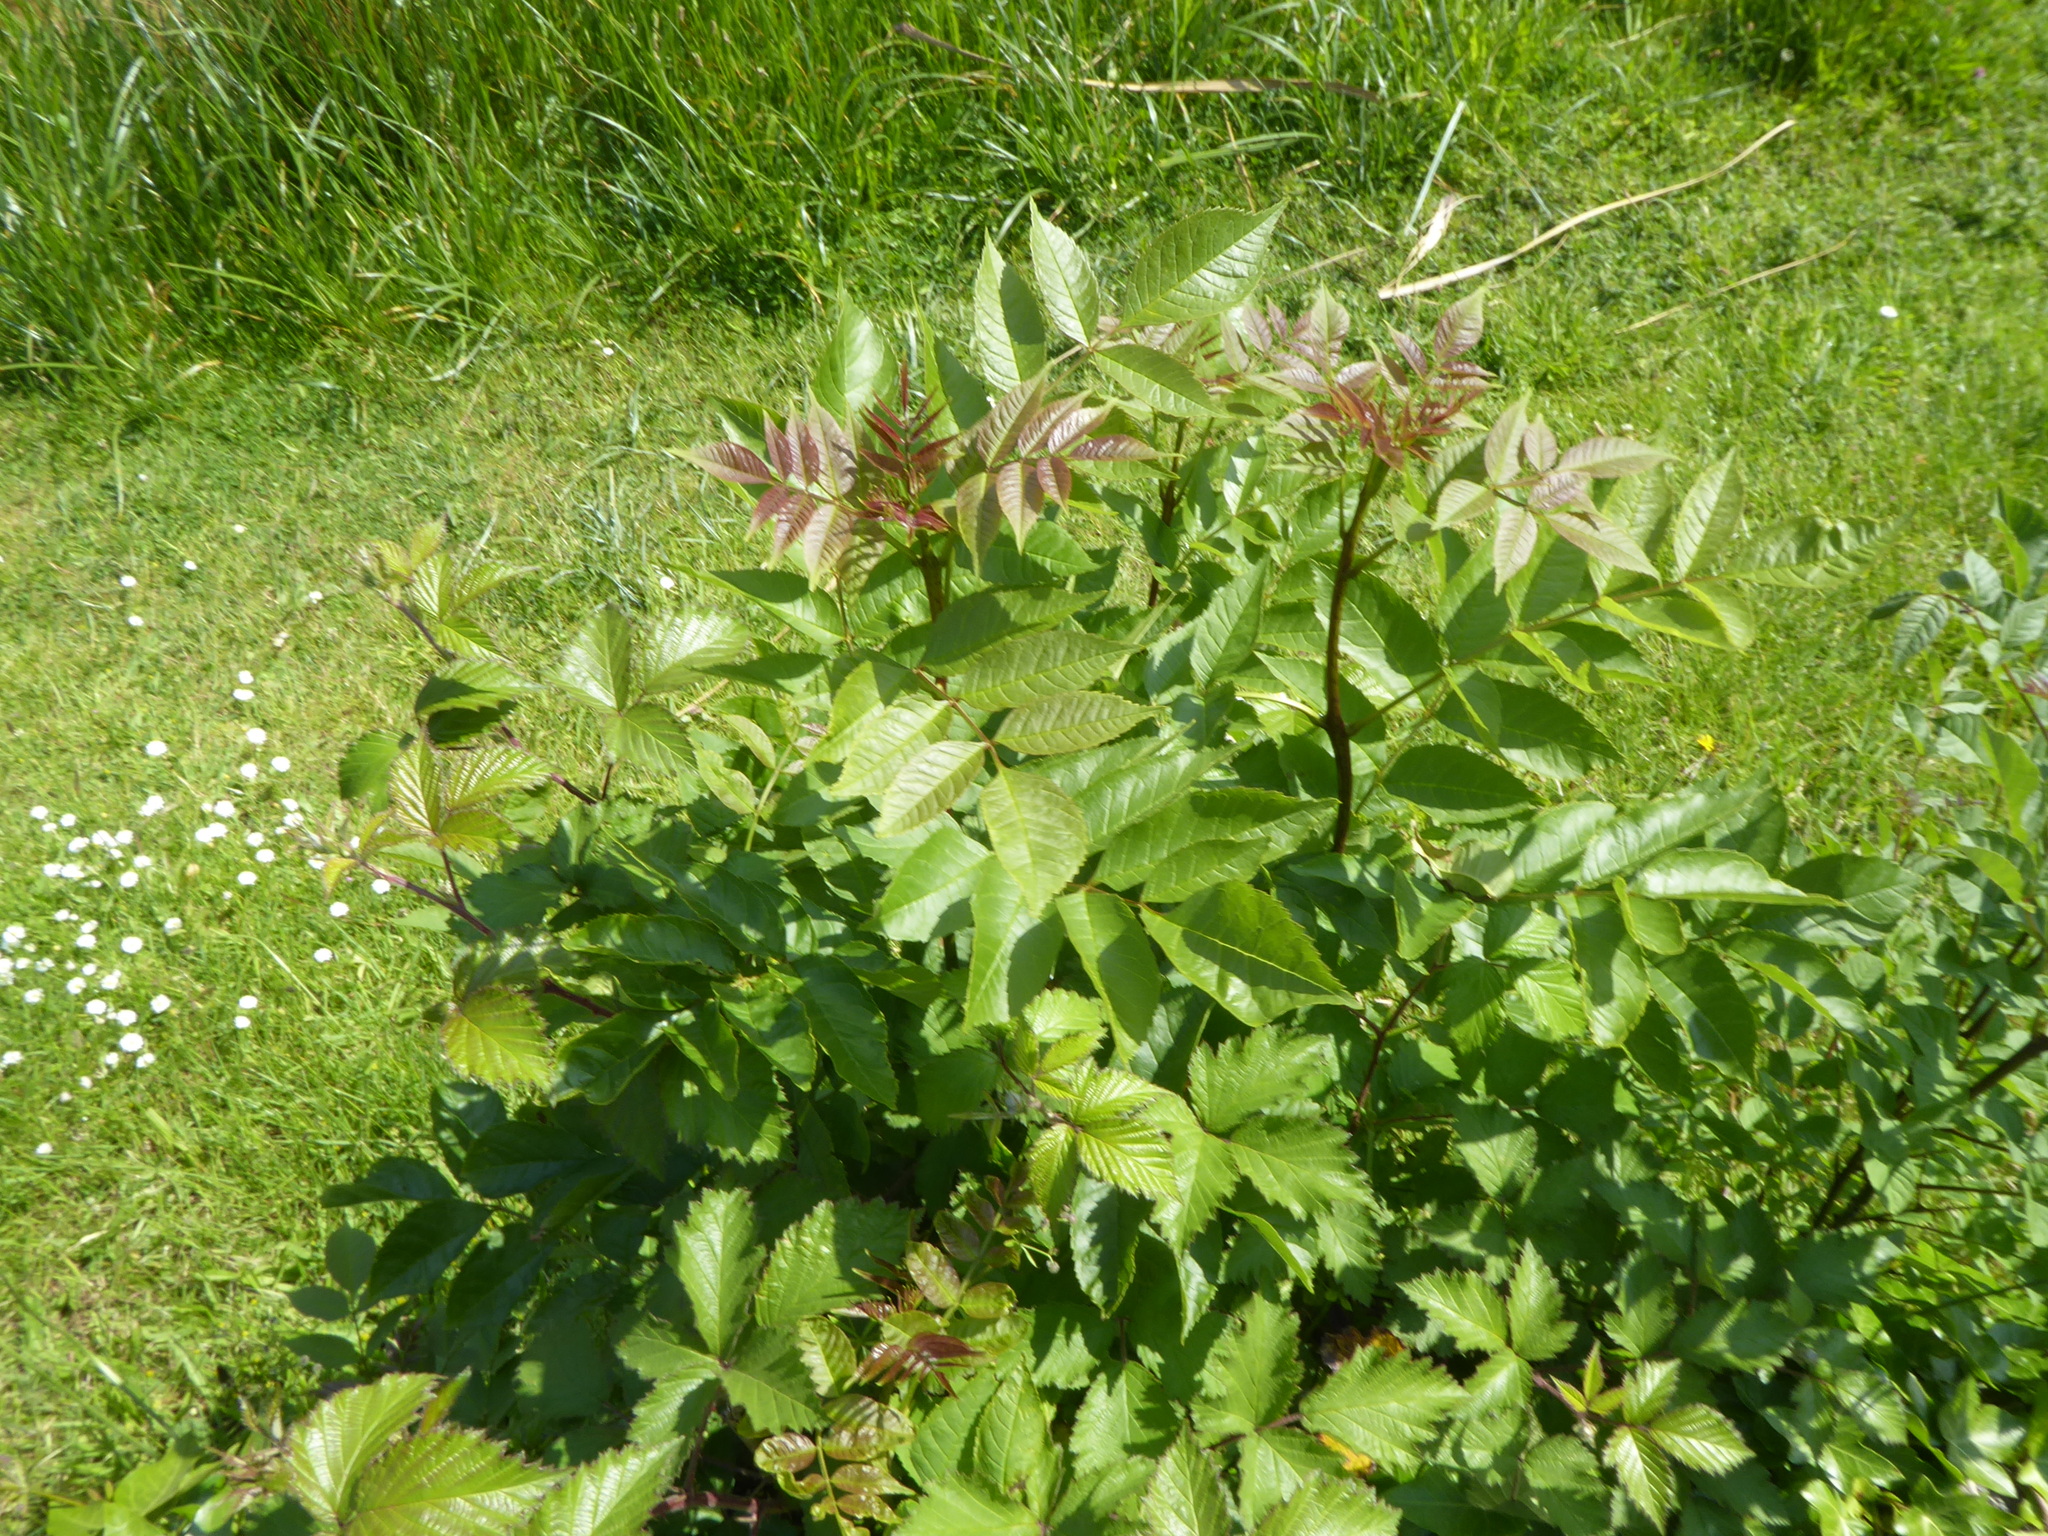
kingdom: Plantae
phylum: Tracheophyta
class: Magnoliopsida
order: Lamiales
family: Oleaceae
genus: Fraxinus
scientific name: Fraxinus excelsior
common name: European ash
